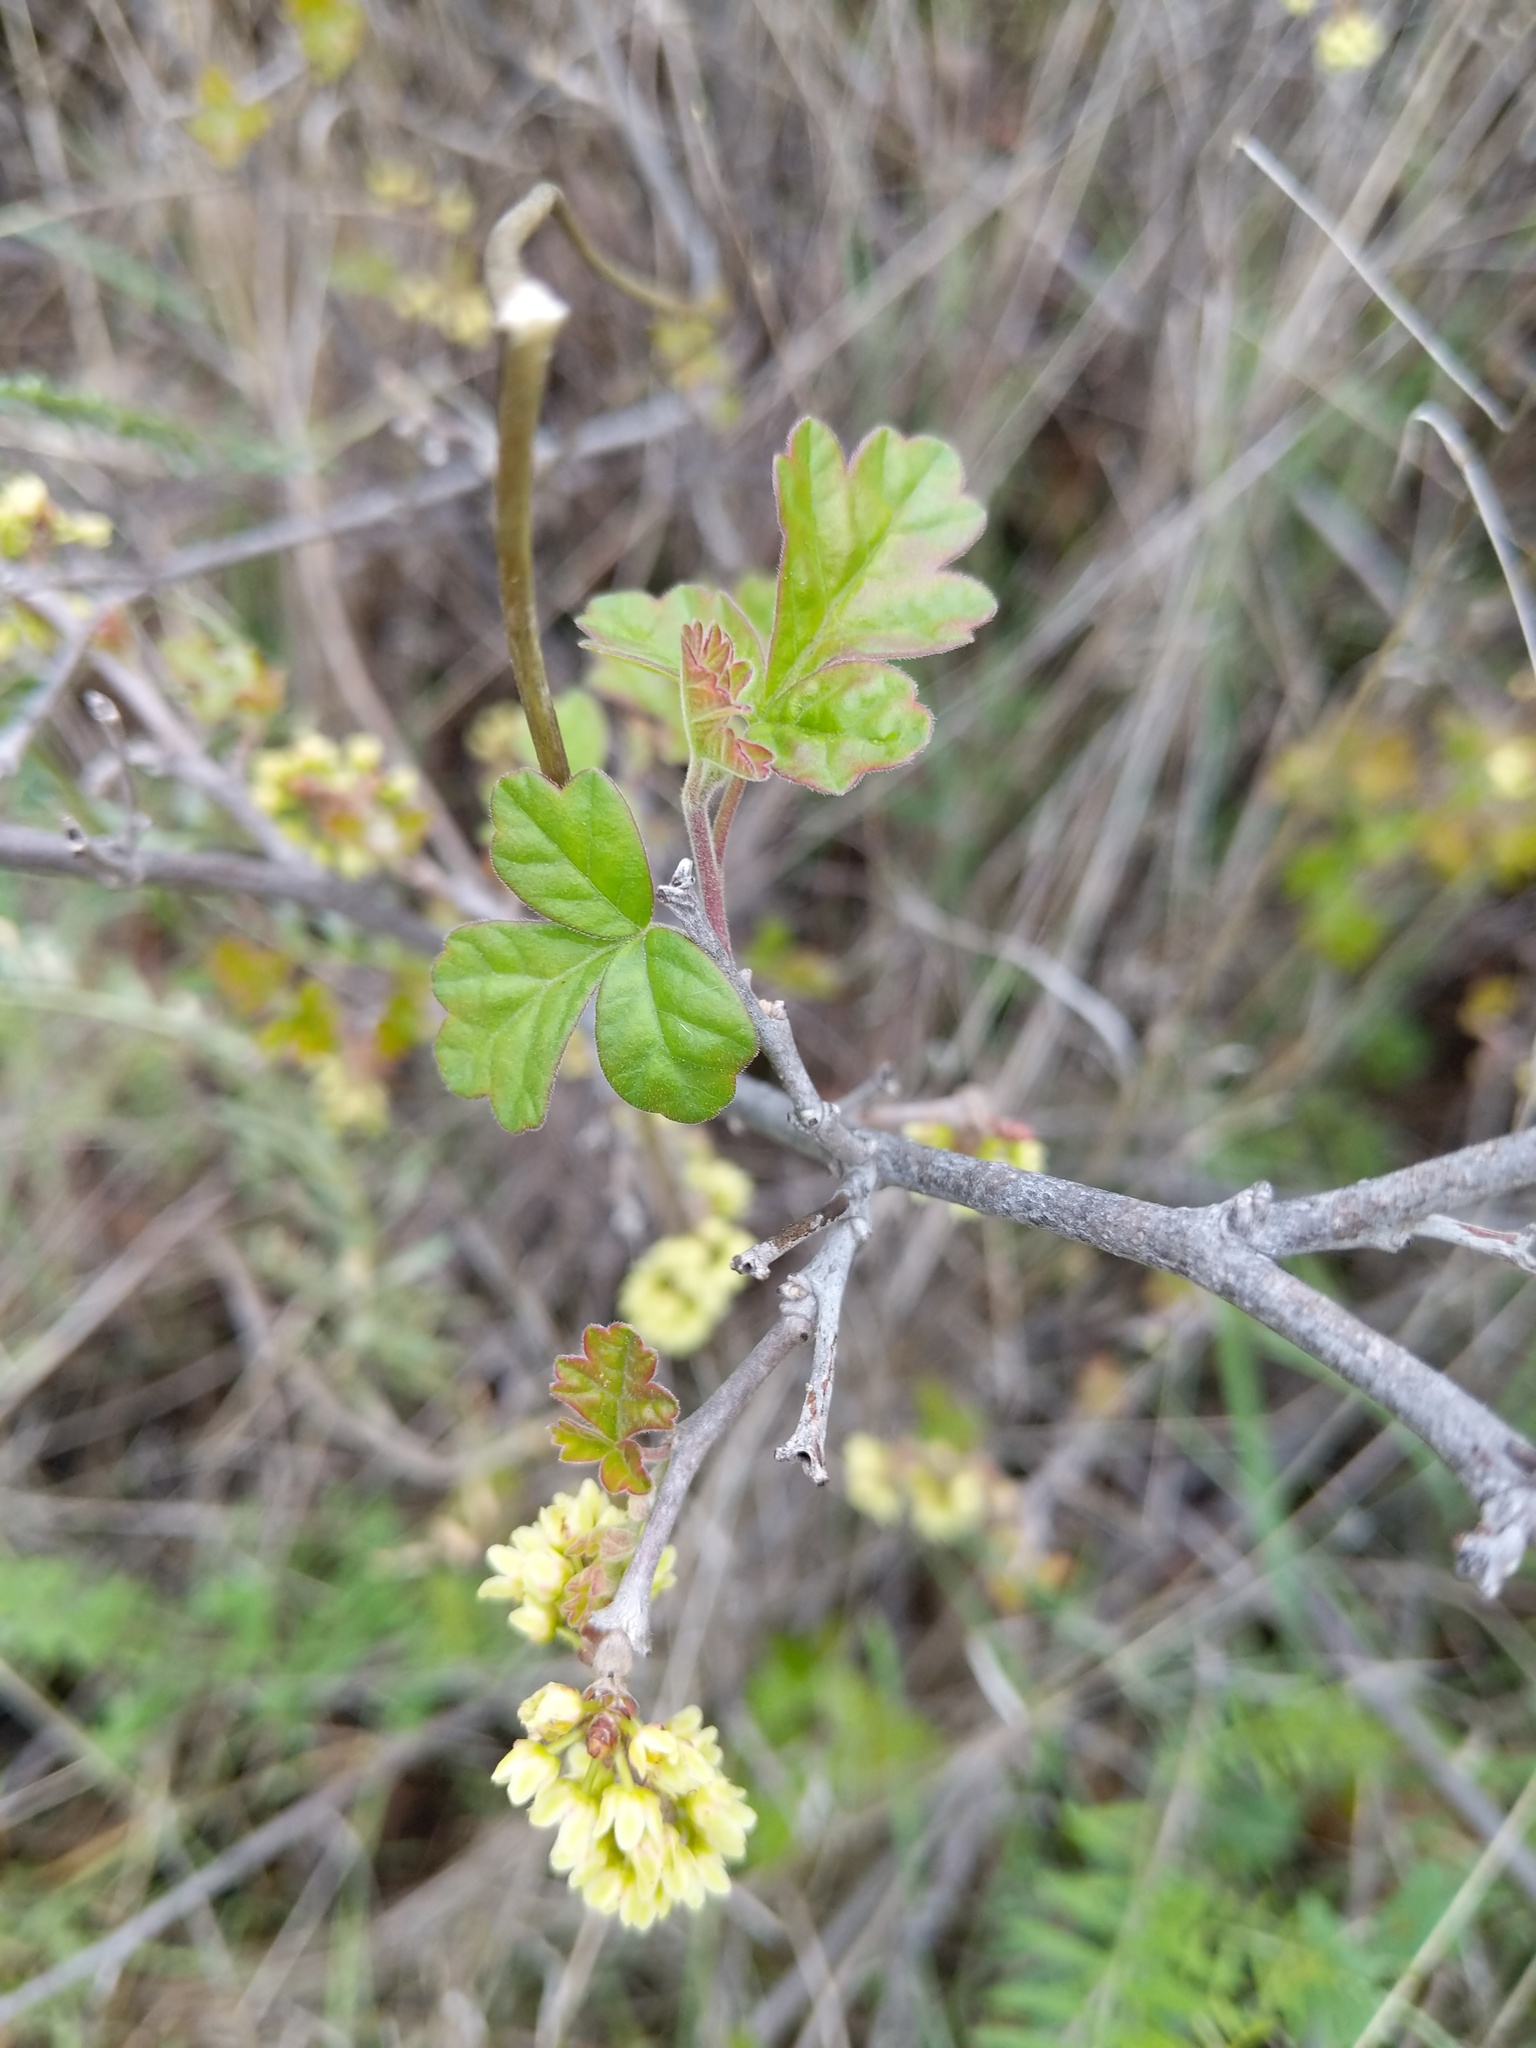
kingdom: Plantae
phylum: Tracheophyta
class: Magnoliopsida
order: Sapindales
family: Anacardiaceae
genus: Rhus
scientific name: Rhus aromatica
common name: Aromatic sumac
